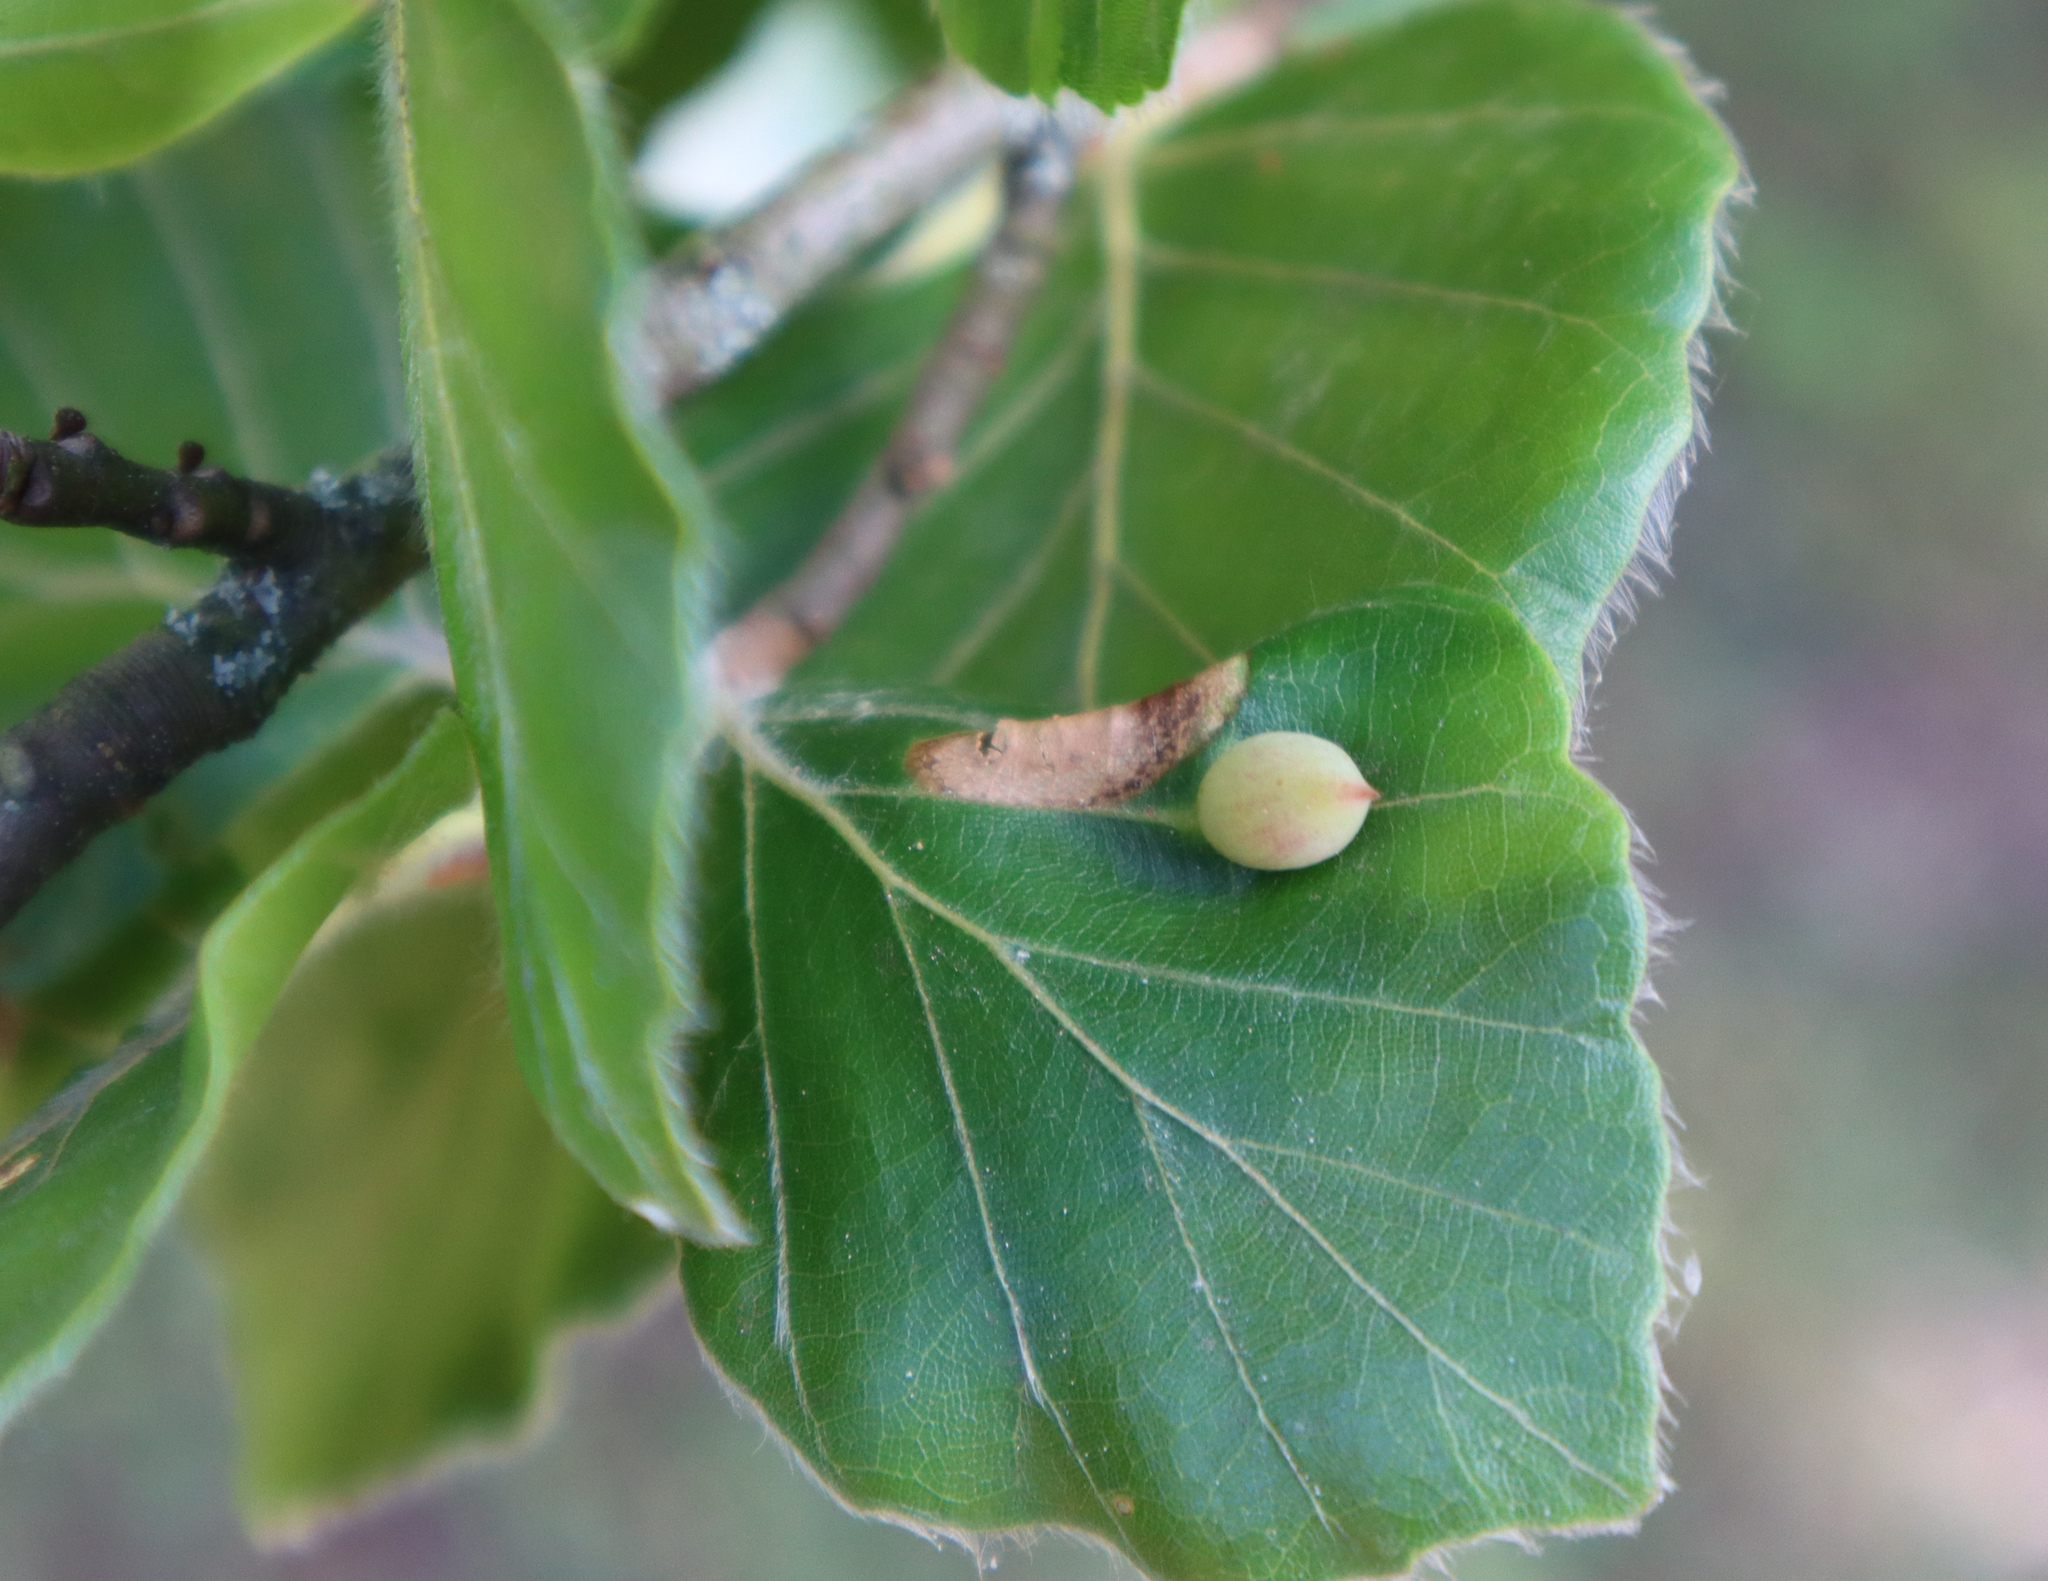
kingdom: Animalia
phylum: Arthropoda
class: Insecta
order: Diptera
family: Cecidomyiidae
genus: Mikiola
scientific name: Mikiola fagi
